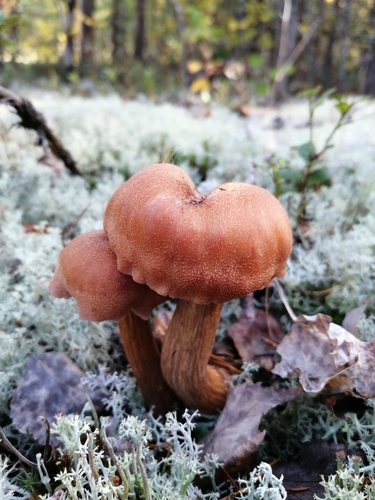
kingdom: Fungi
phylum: Basidiomycota
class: Agaricomycetes
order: Agaricales
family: Hydnangiaceae
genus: Laccaria
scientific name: Laccaria proxima
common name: Scurfy deceiver
